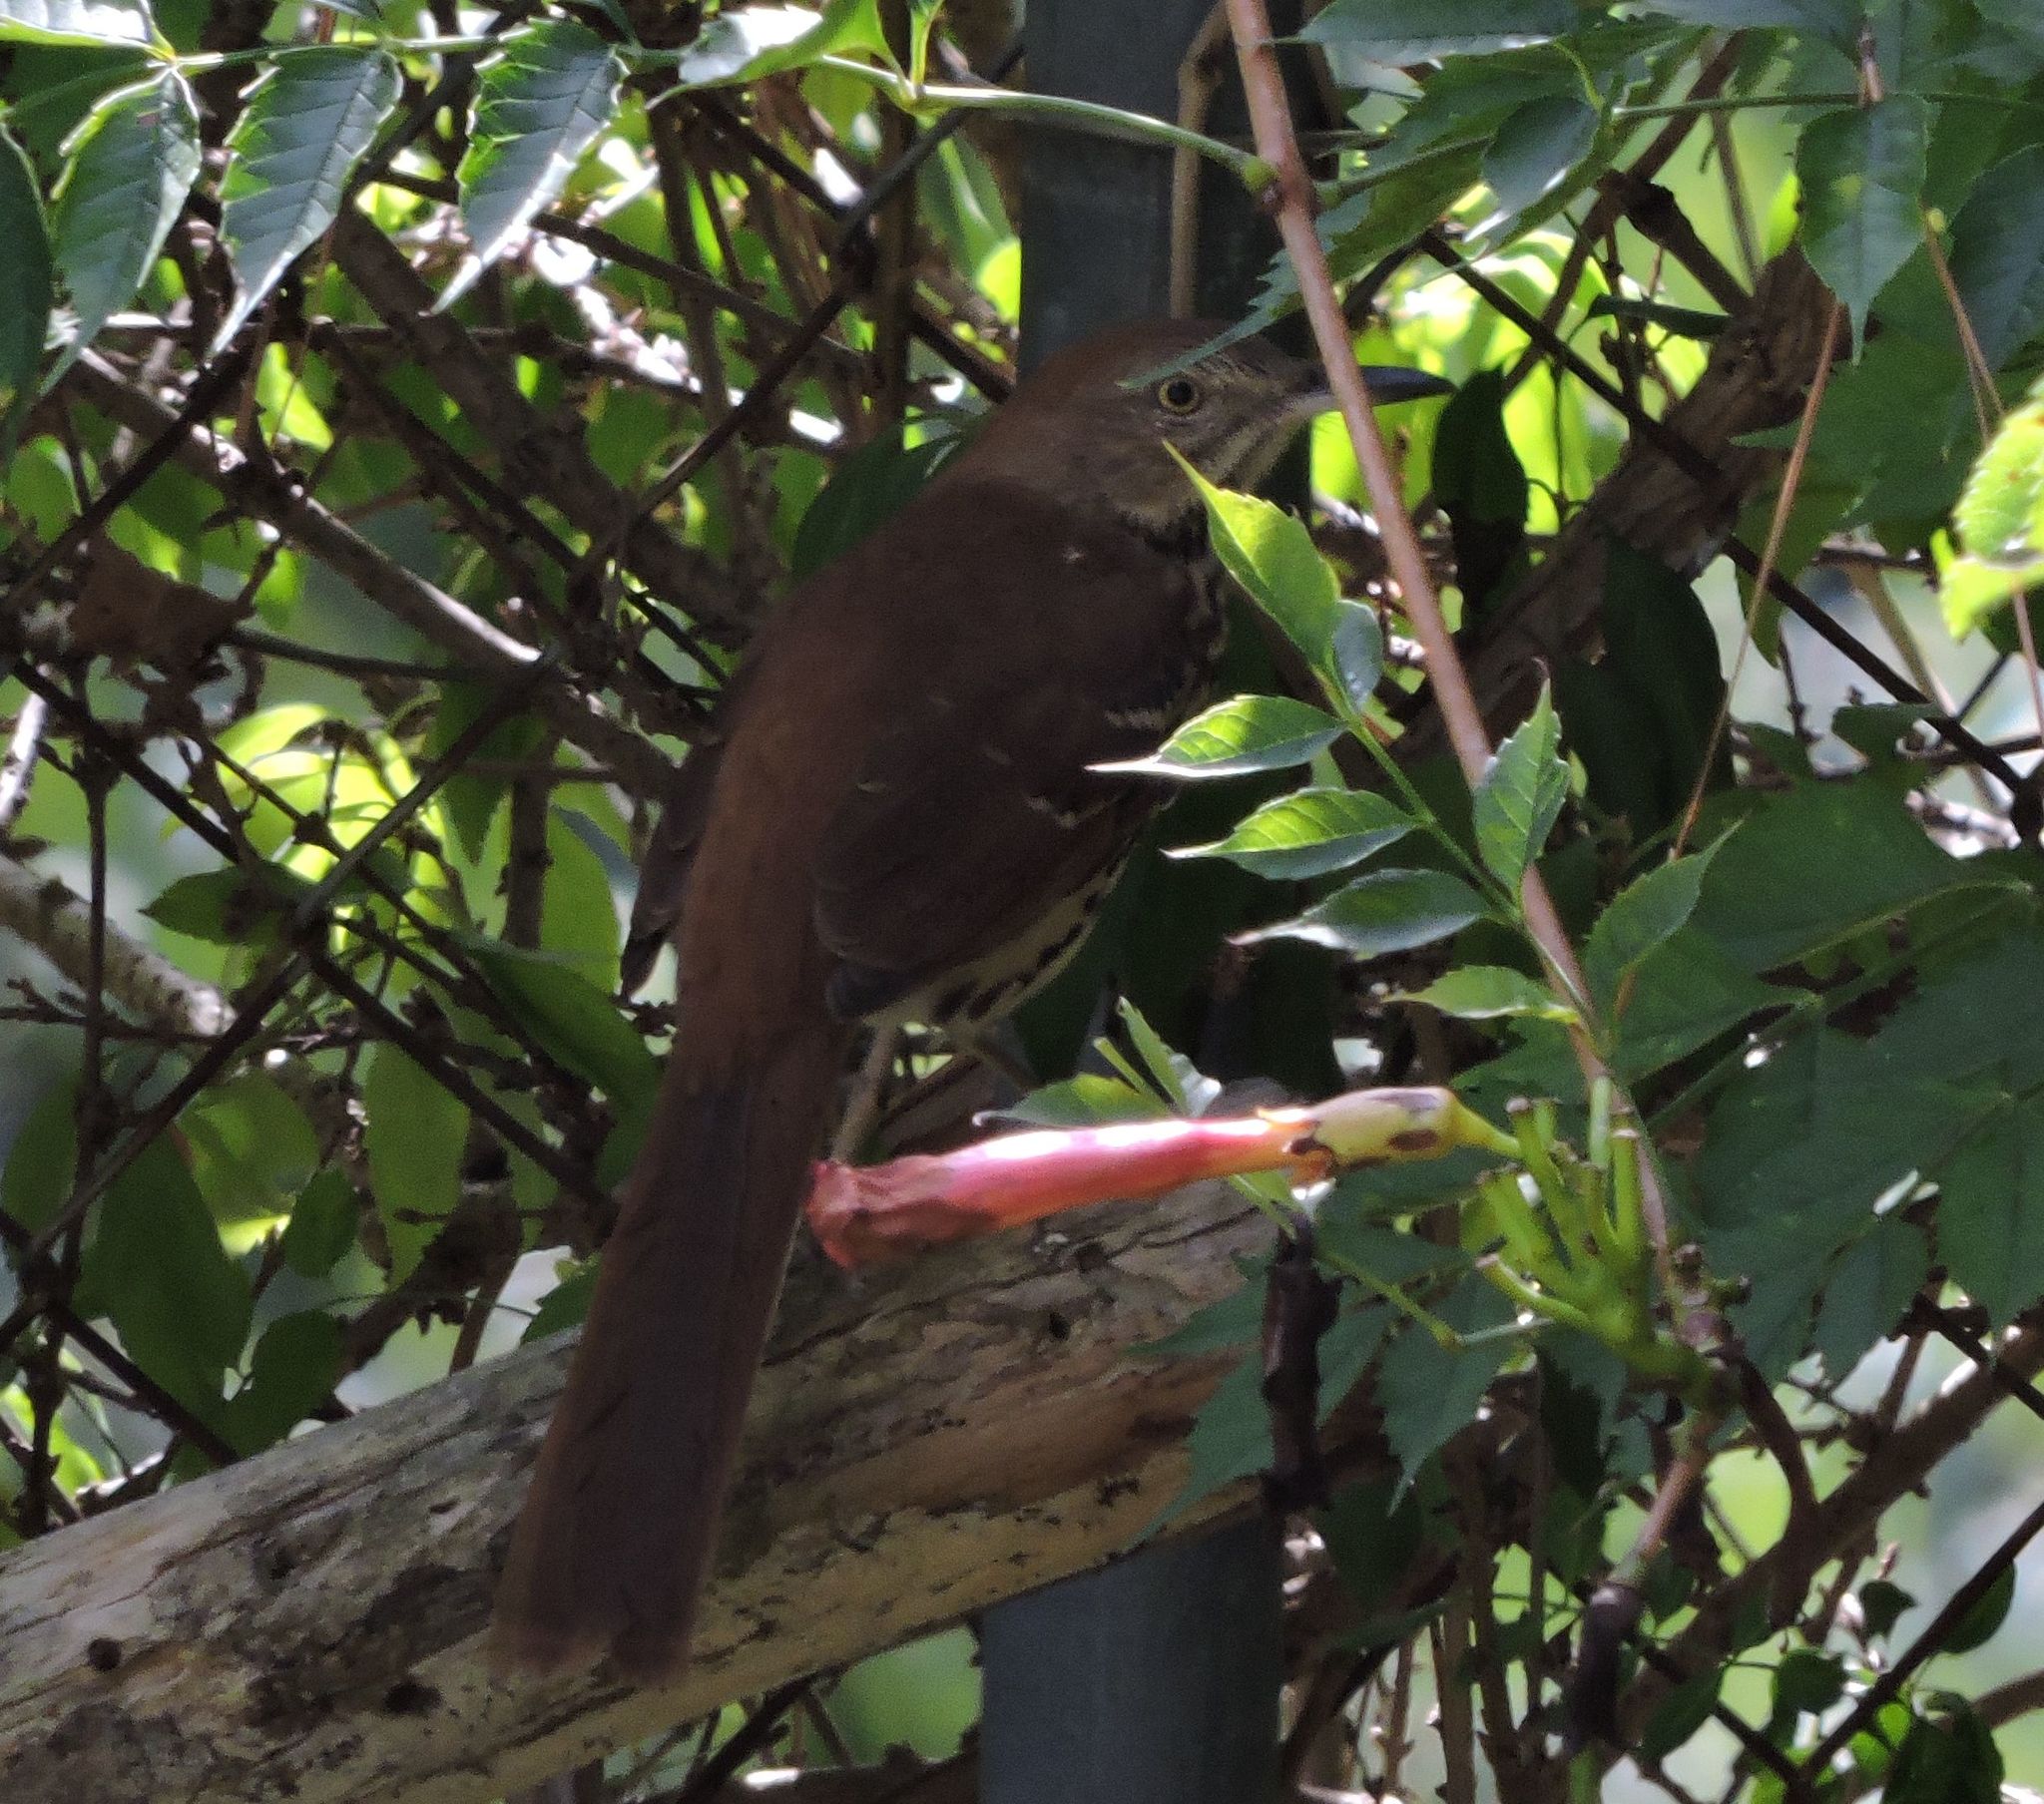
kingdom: Animalia
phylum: Chordata
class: Aves
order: Passeriformes
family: Mimidae
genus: Toxostoma
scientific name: Toxostoma rufum
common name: Brown thrasher
